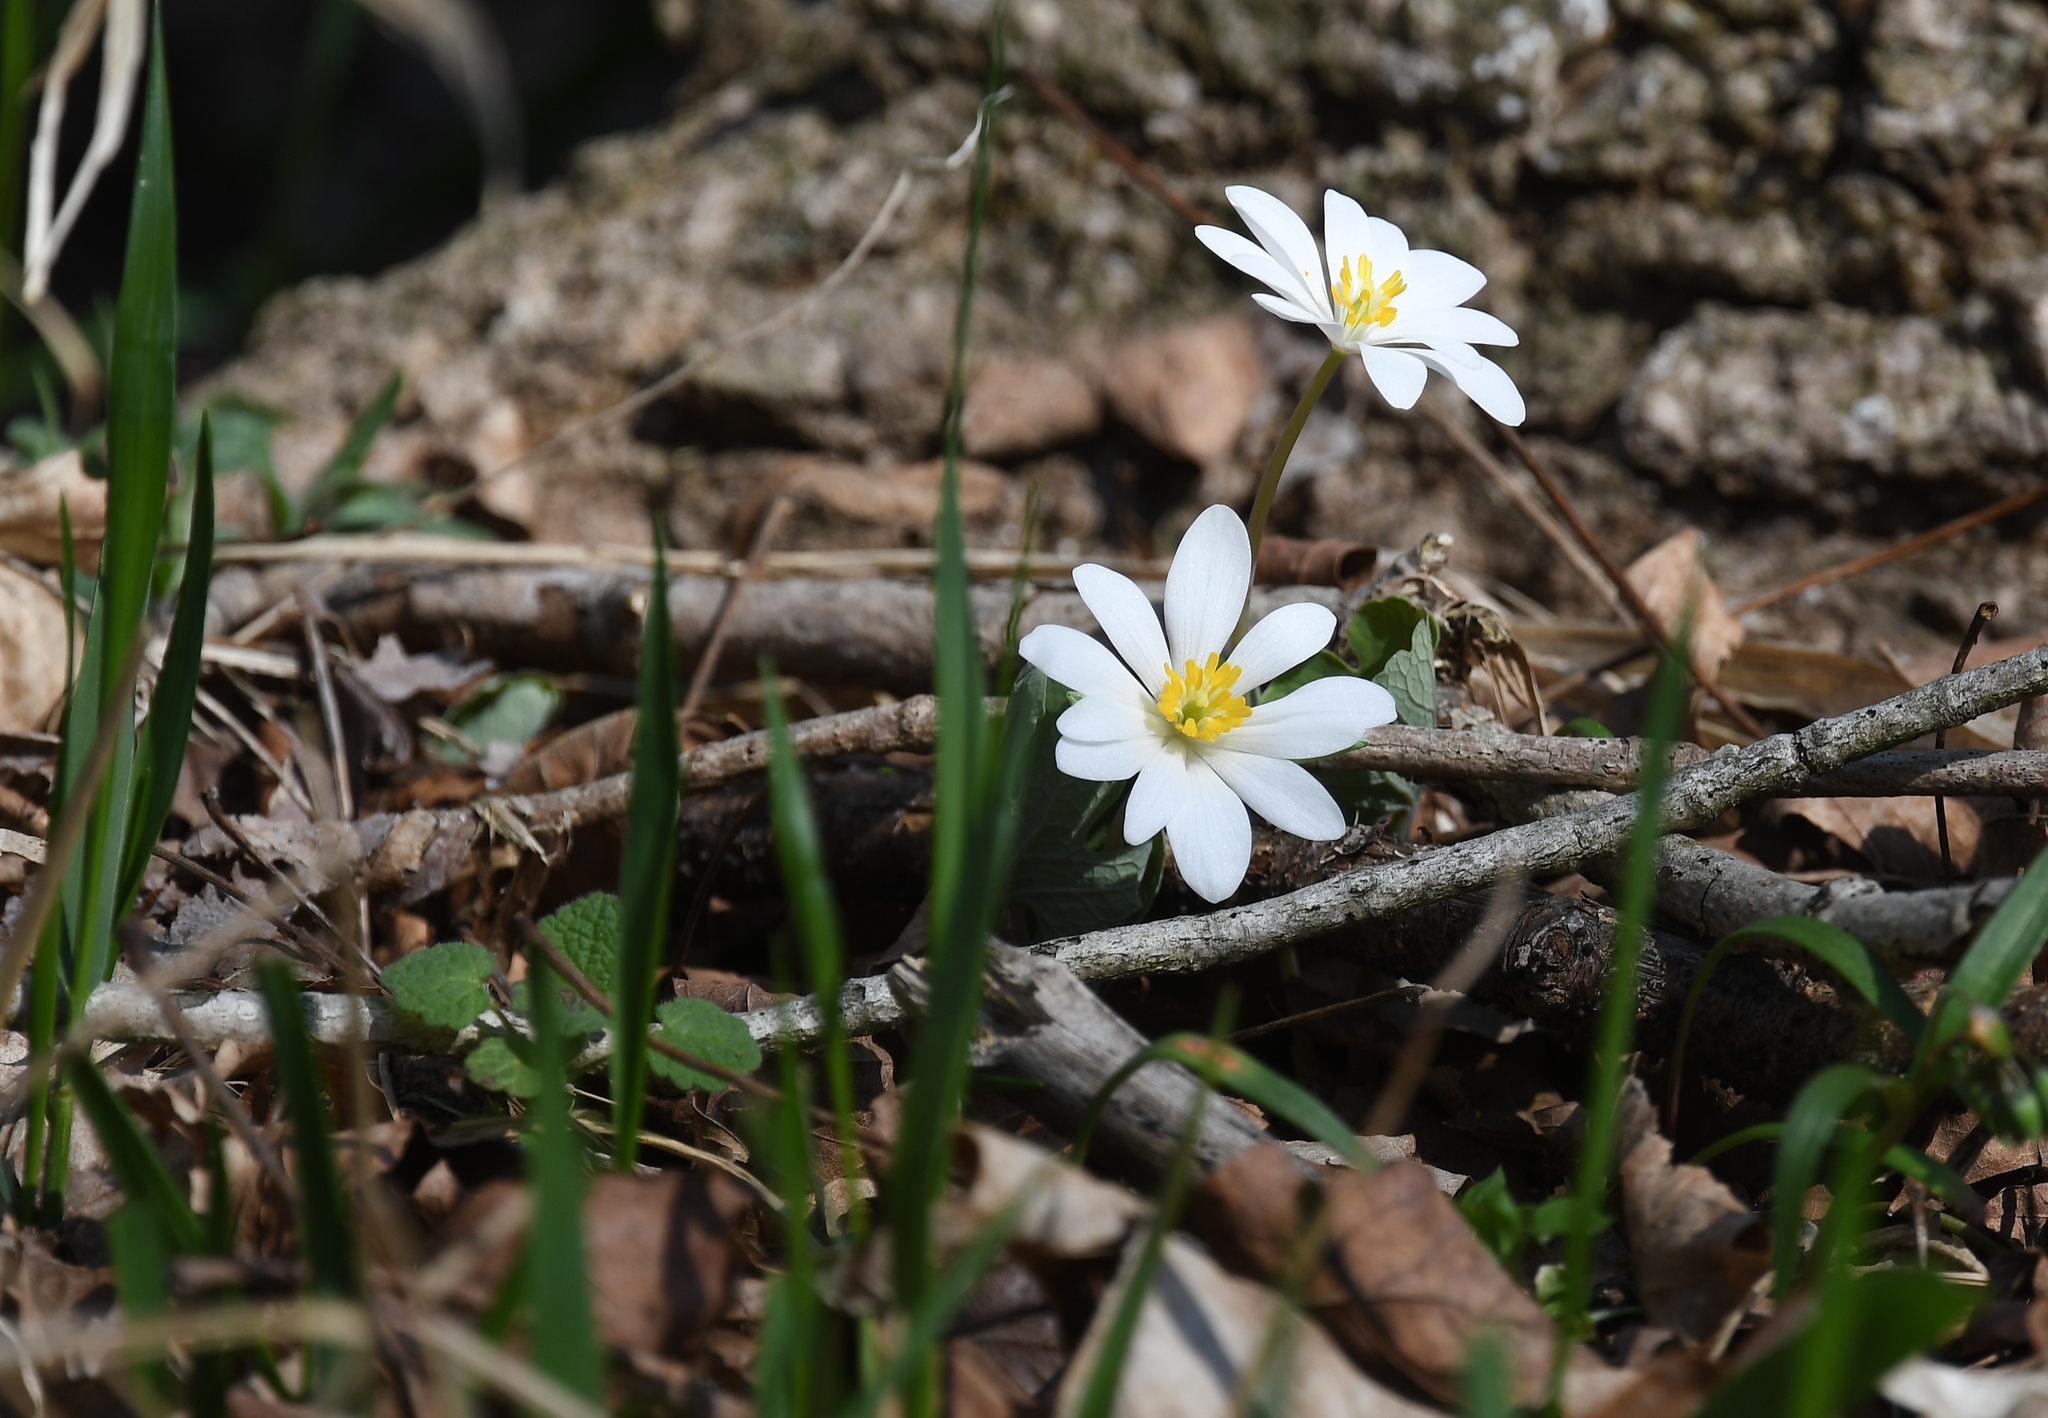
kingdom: Plantae
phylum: Tracheophyta
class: Magnoliopsida
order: Ranunculales
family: Papaveraceae
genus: Sanguinaria
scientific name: Sanguinaria canadensis
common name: Bloodroot
